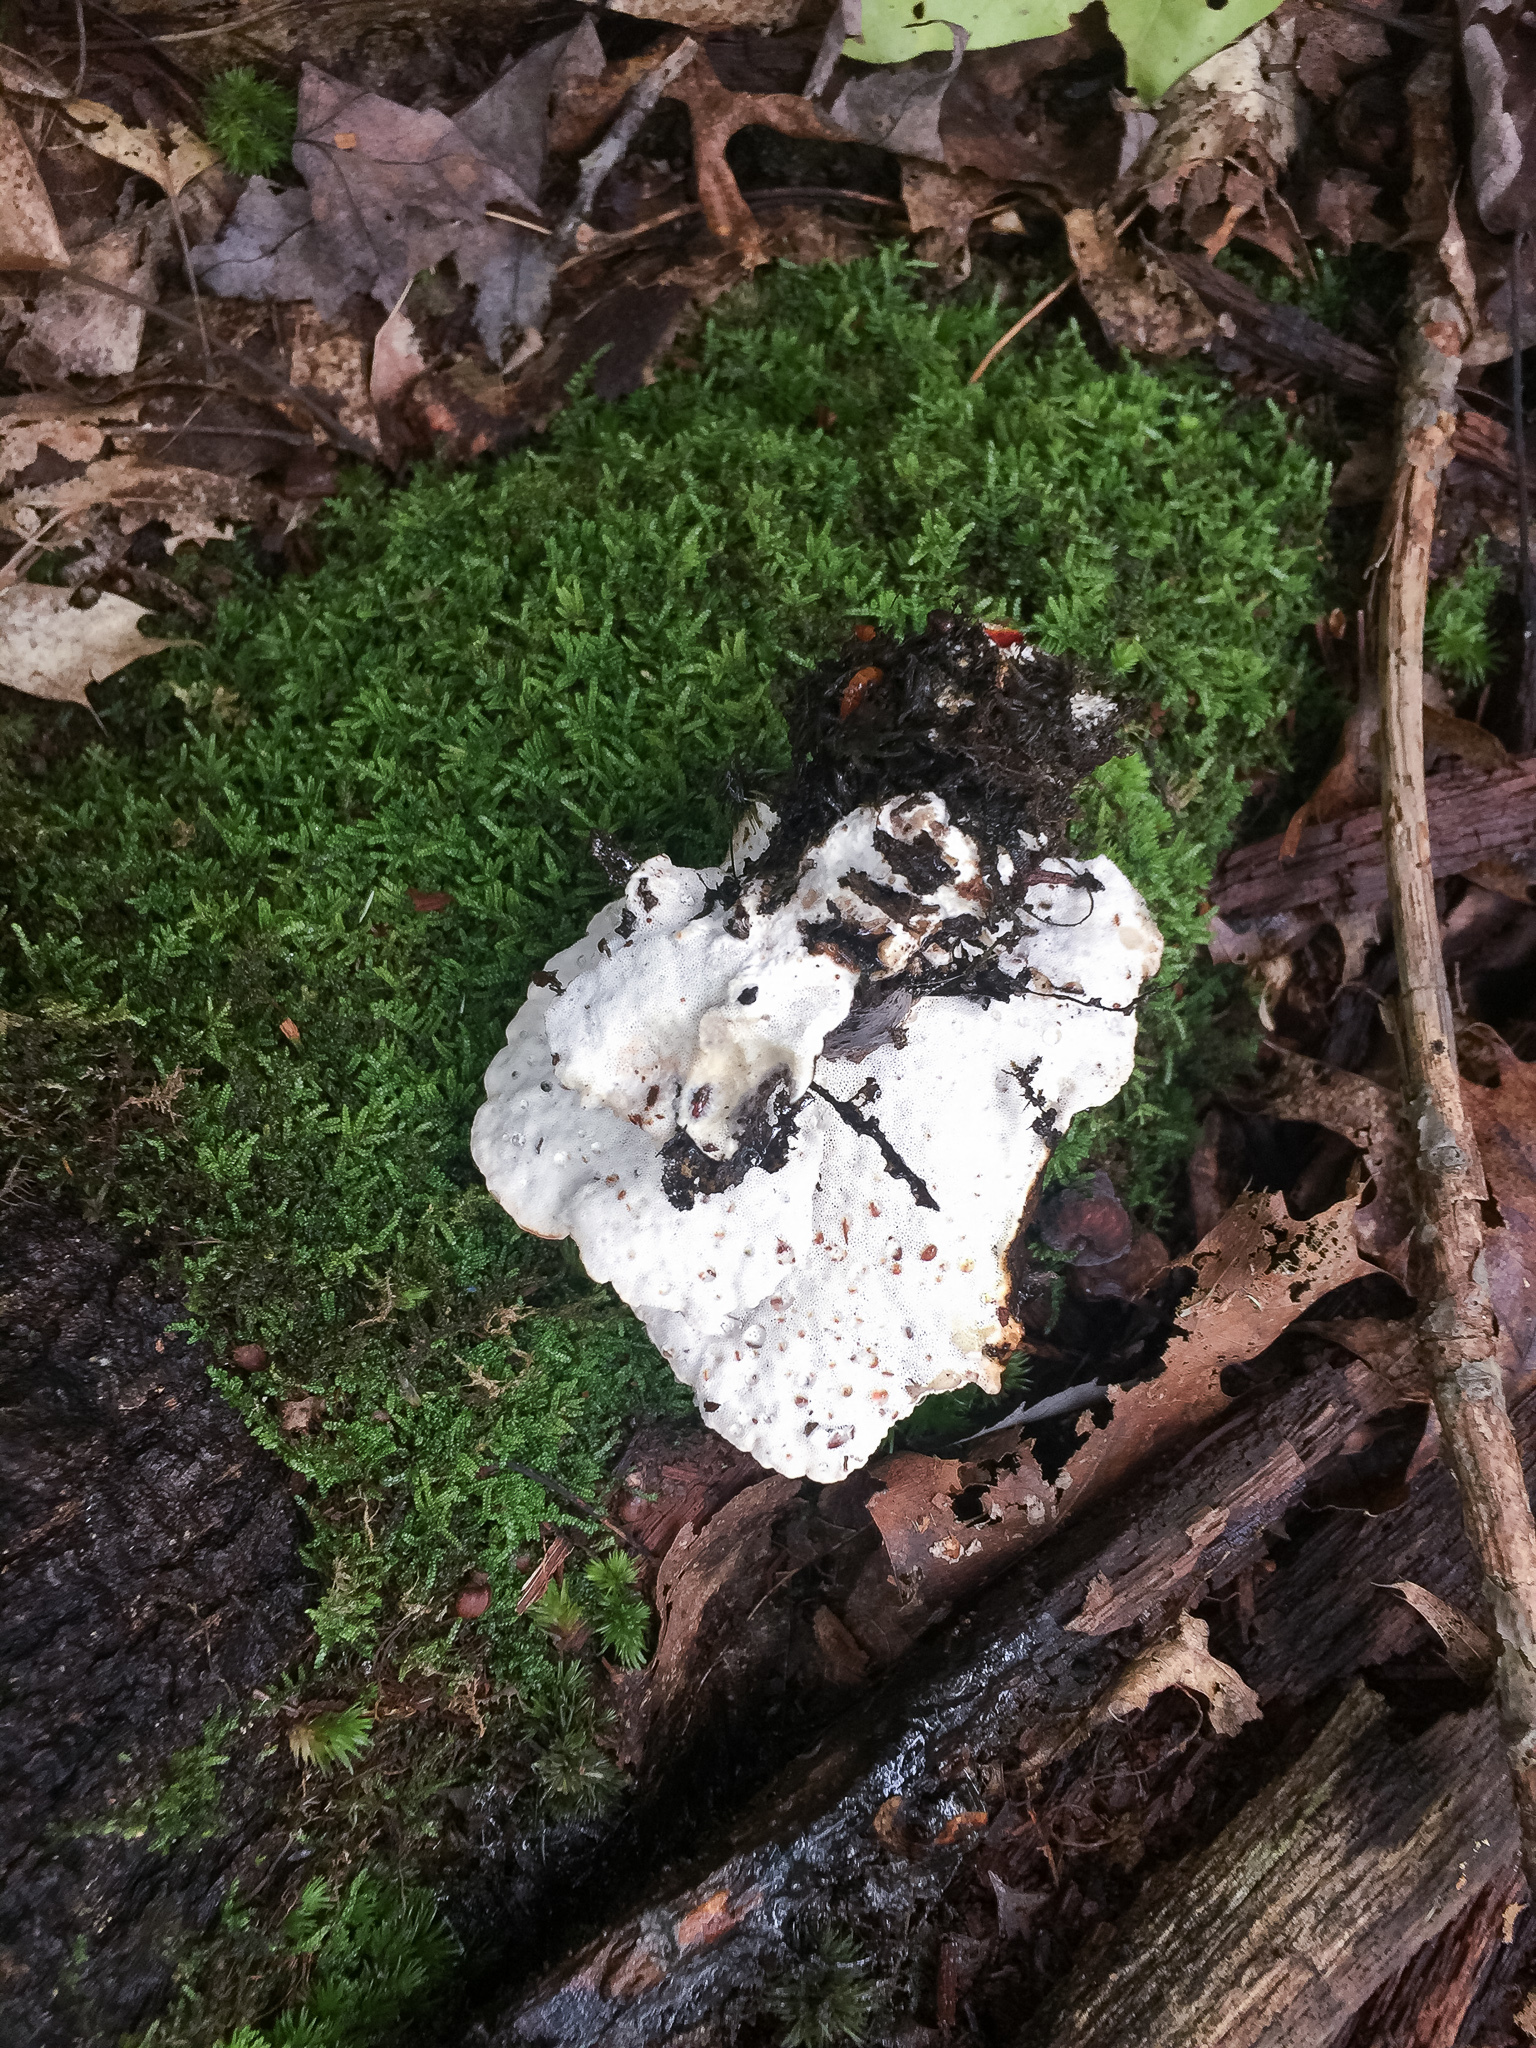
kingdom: Fungi
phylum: Basidiomycota
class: Agaricomycetes
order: Polyporales
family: Fomitopsidaceae
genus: Niveoporofomes
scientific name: Niveoporofomes spraguei
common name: Green cheese polypore
